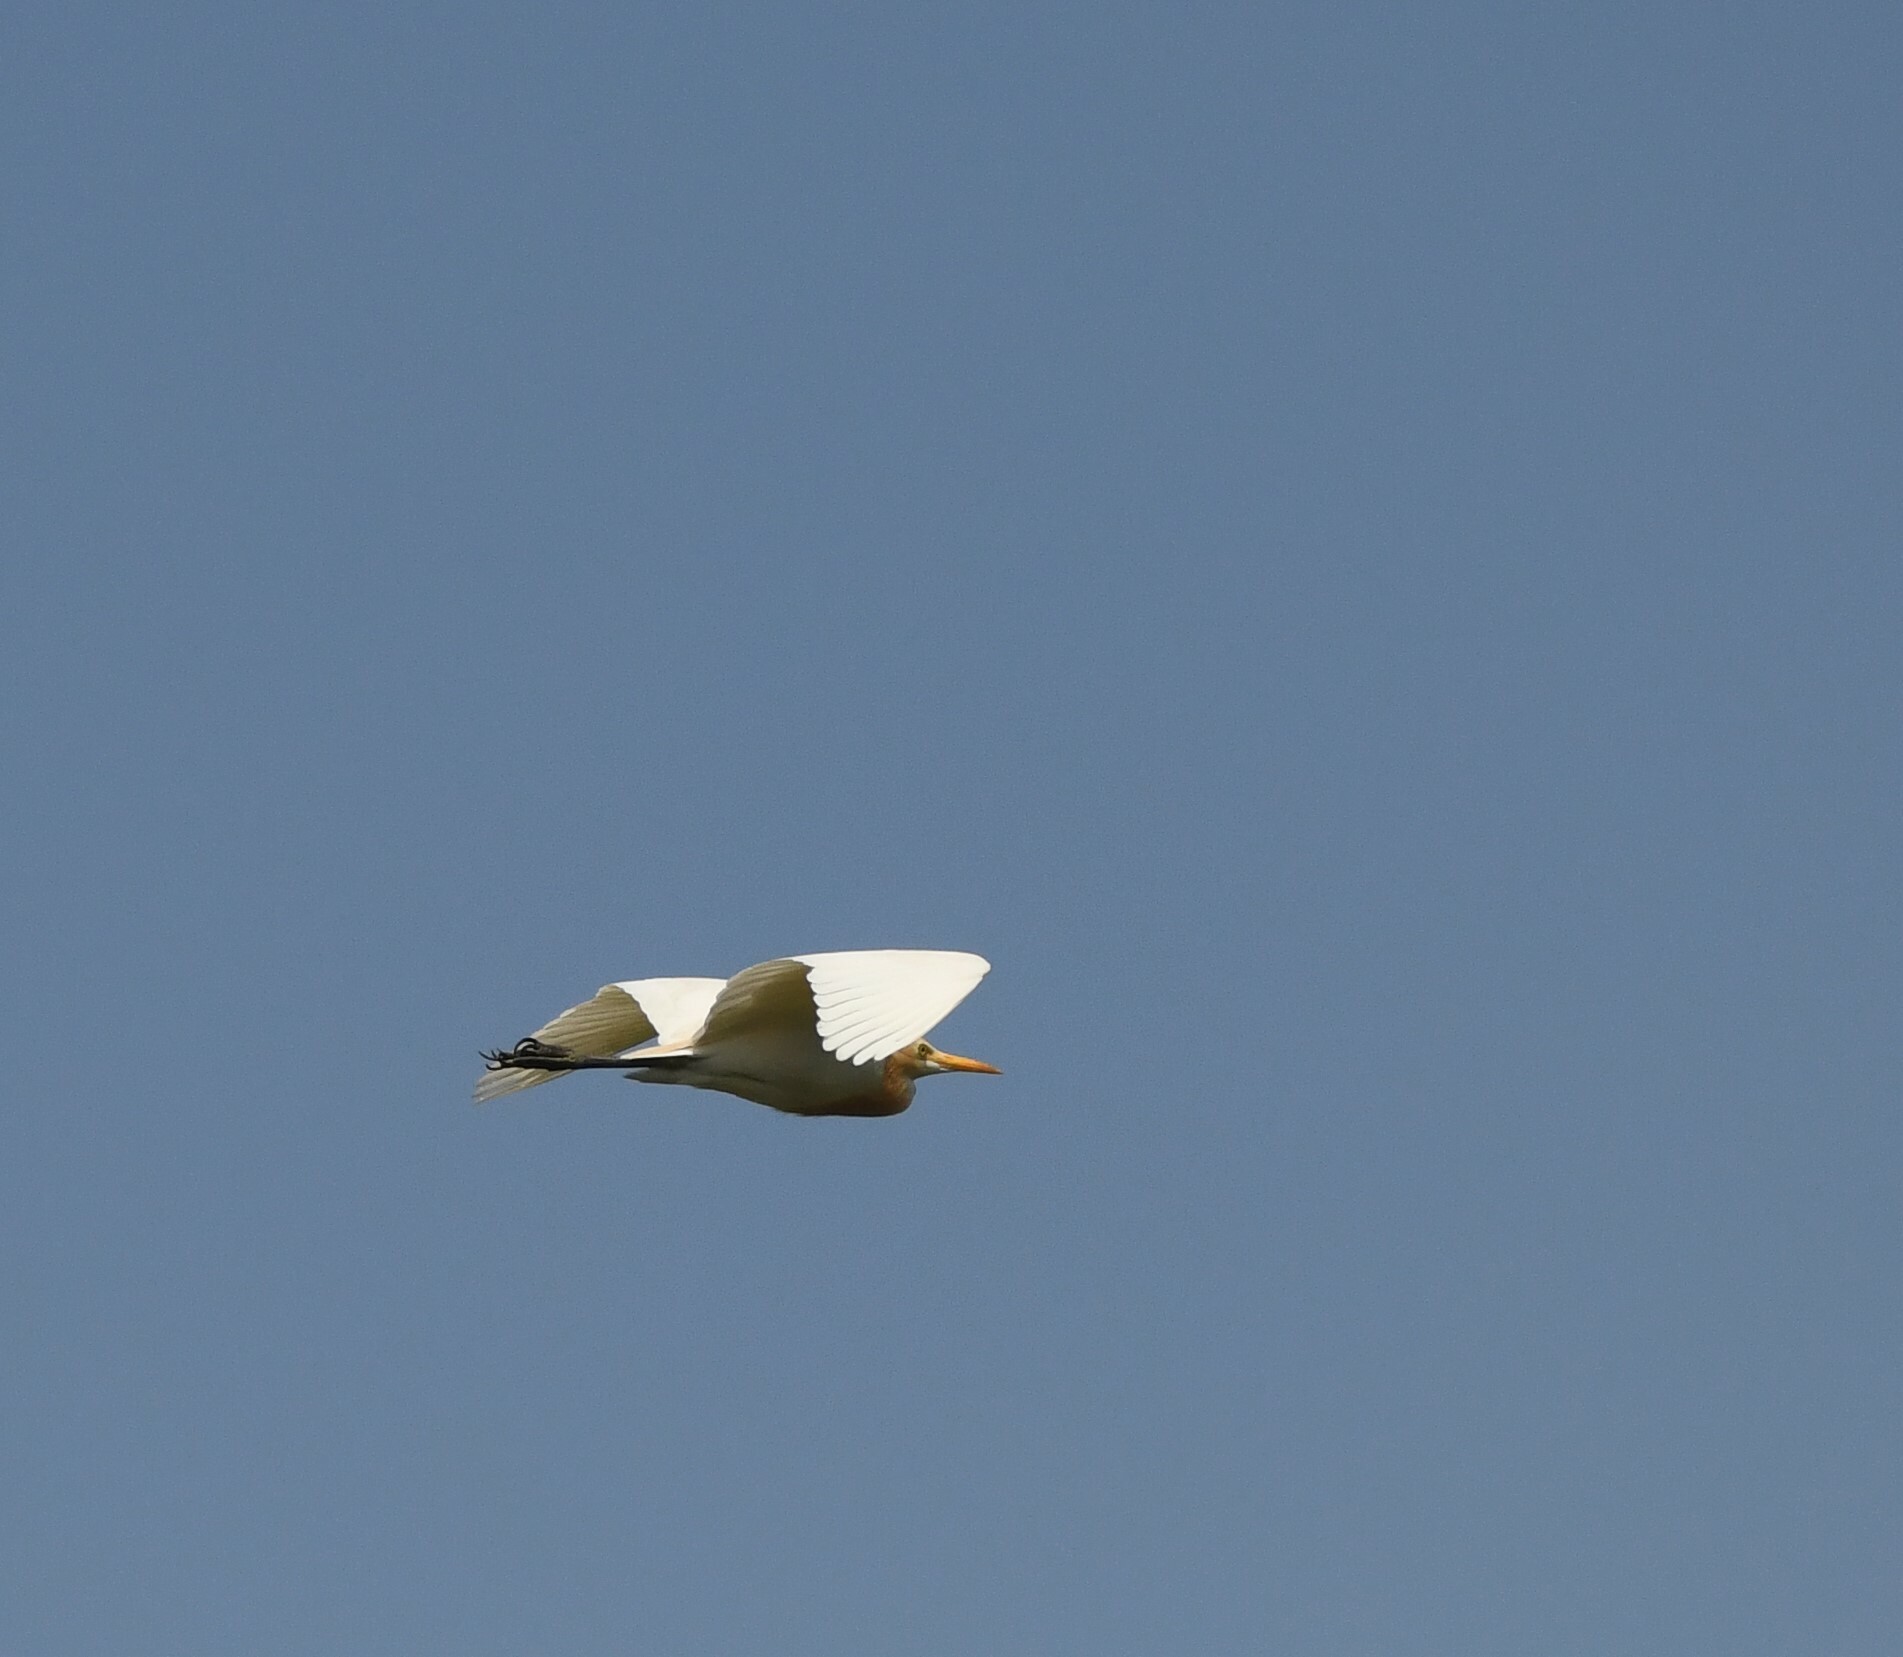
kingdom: Animalia
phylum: Chordata
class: Aves
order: Pelecaniformes
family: Ardeidae
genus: Bubulcus
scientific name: Bubulcus coromandus
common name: Eastern cattle egret
